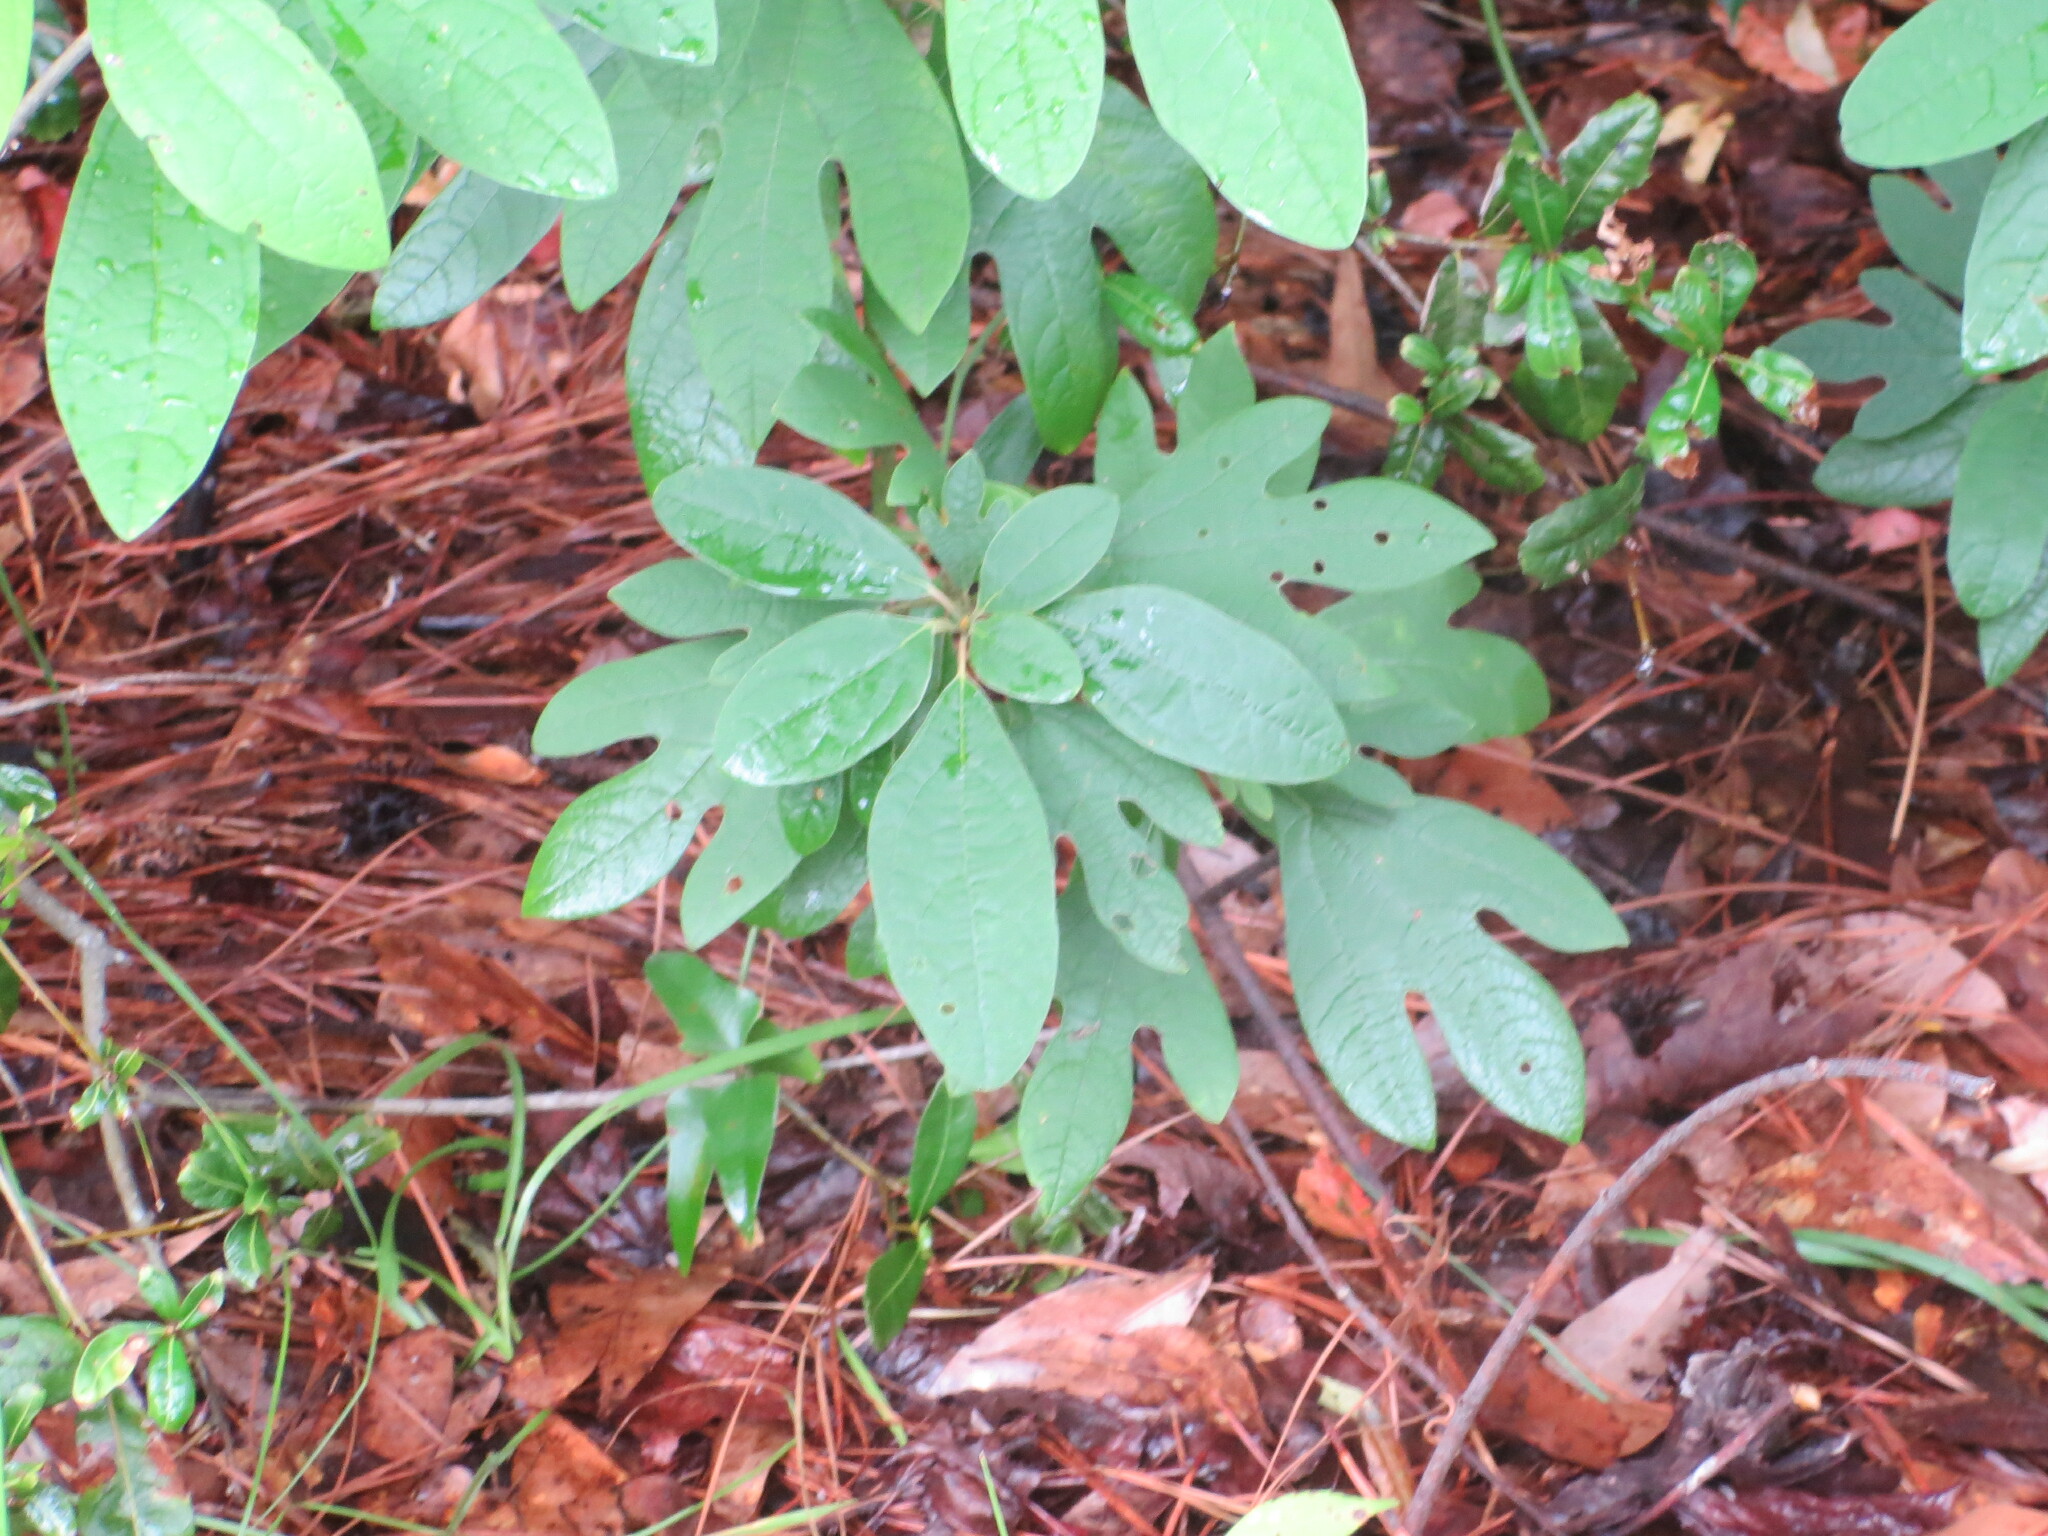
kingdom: Plantae
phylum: Tracheophyta
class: Magnoliopsida
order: Laurales
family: Lauraceae
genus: Sassafras
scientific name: Sassafras albidum
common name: Sassafras
